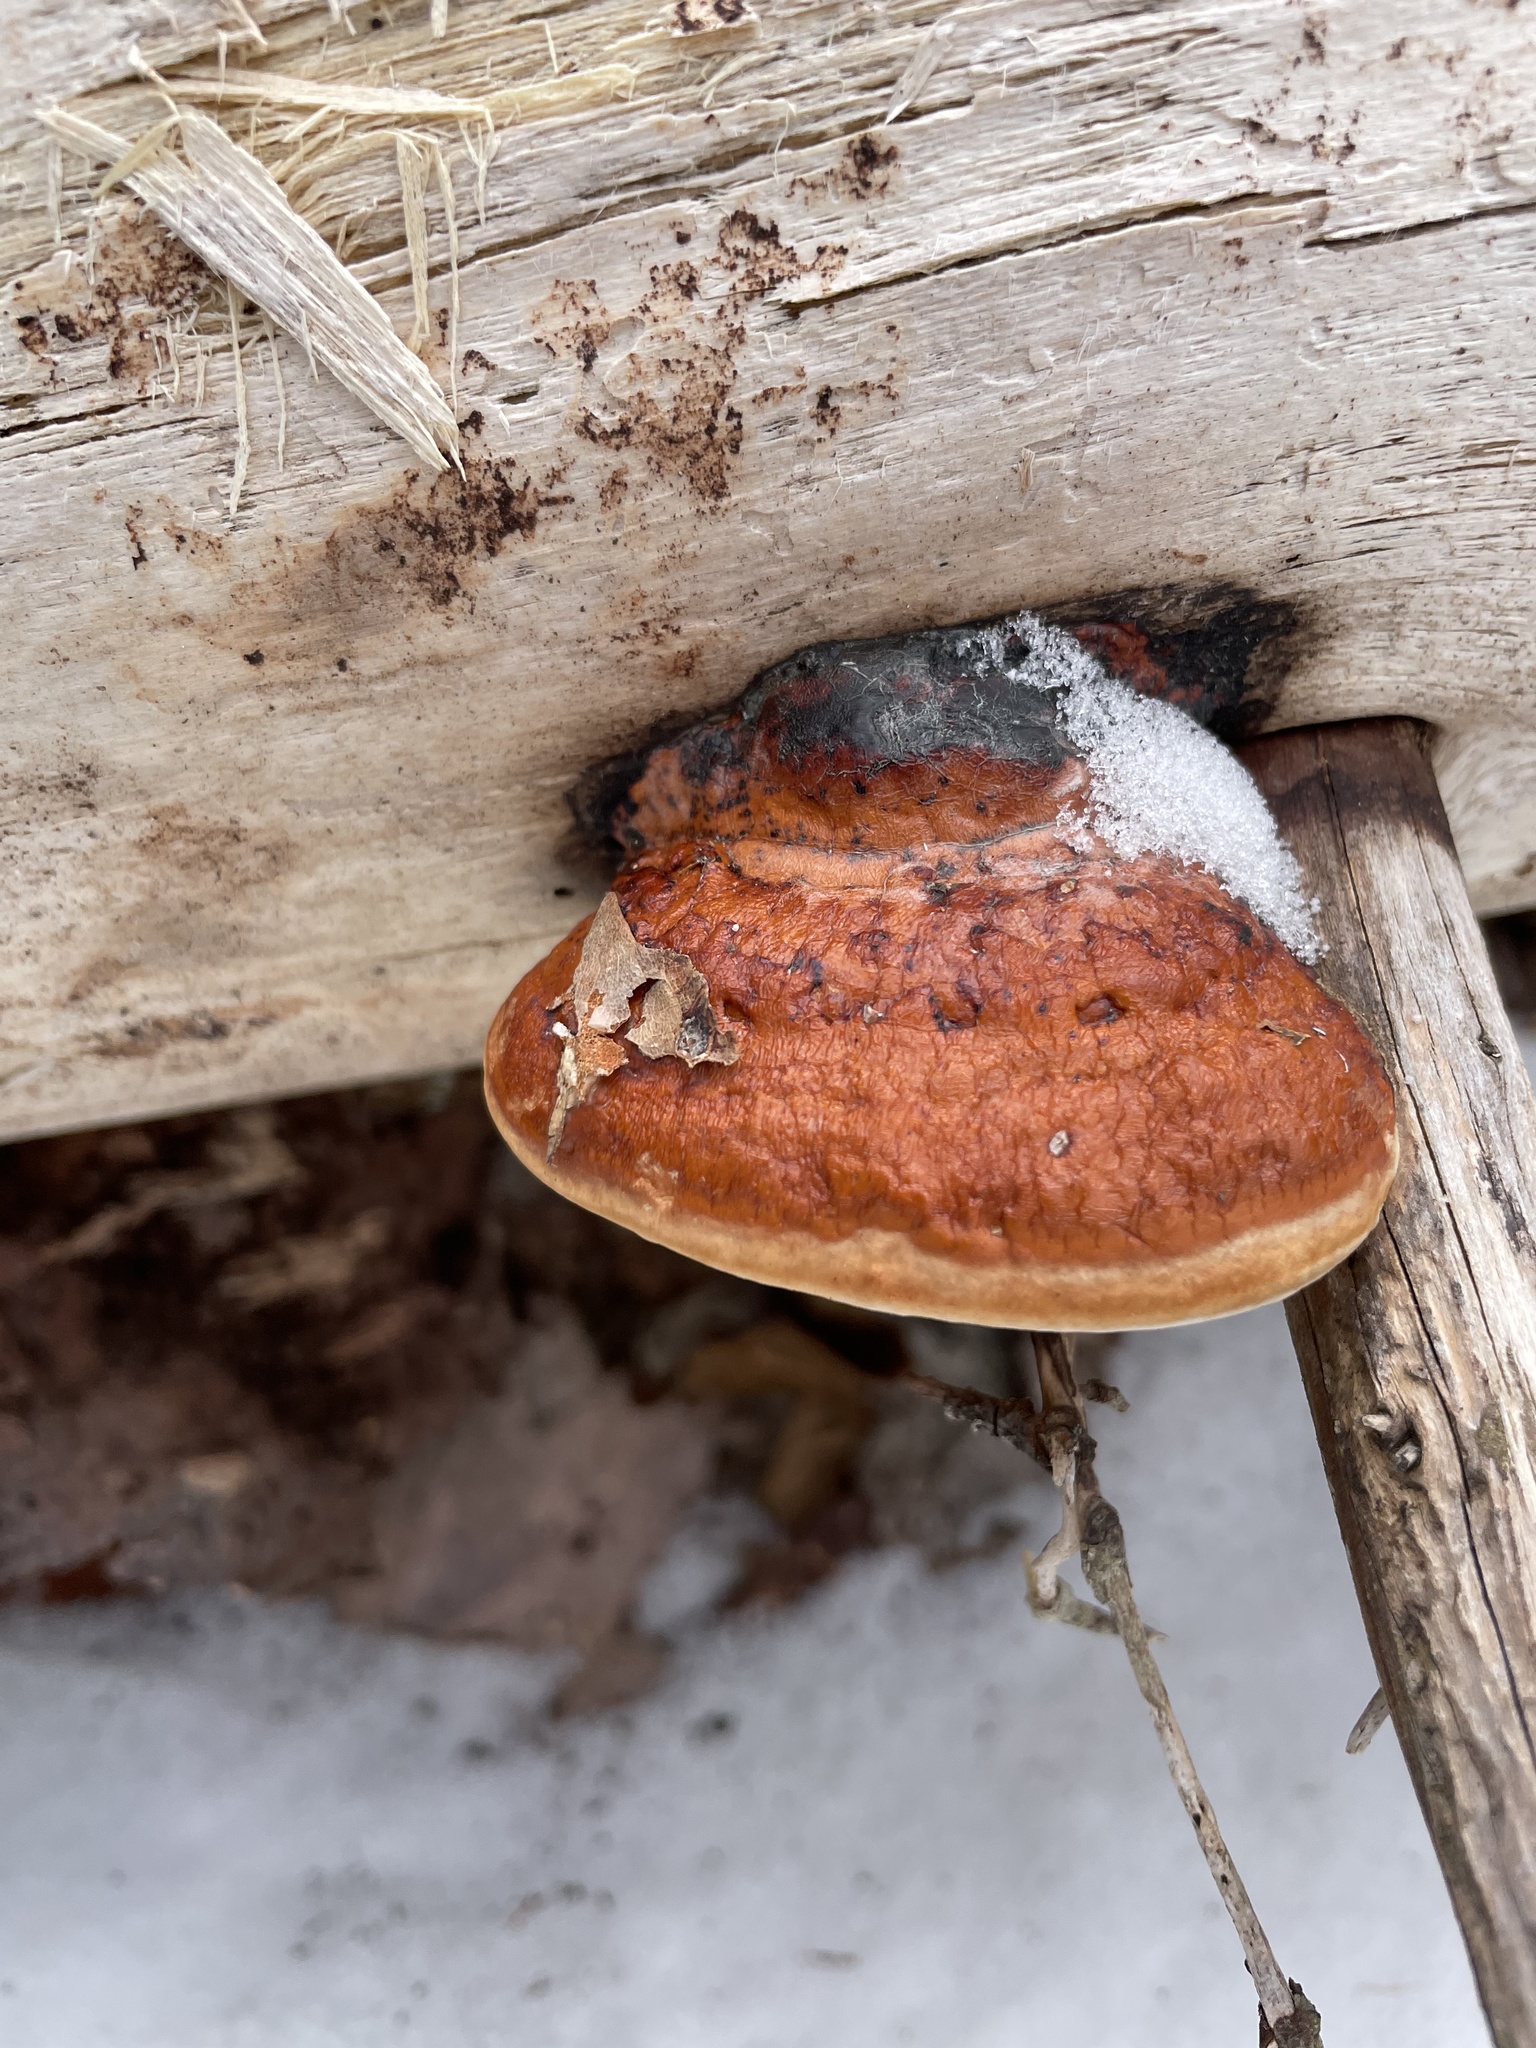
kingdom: Fungi
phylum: Basidiomycota
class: Agaricomycetes
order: Polyporales
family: Fomitopsidaceae
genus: Fomitopsis
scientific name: Fomitopsis mounceae
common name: Northern red belt
